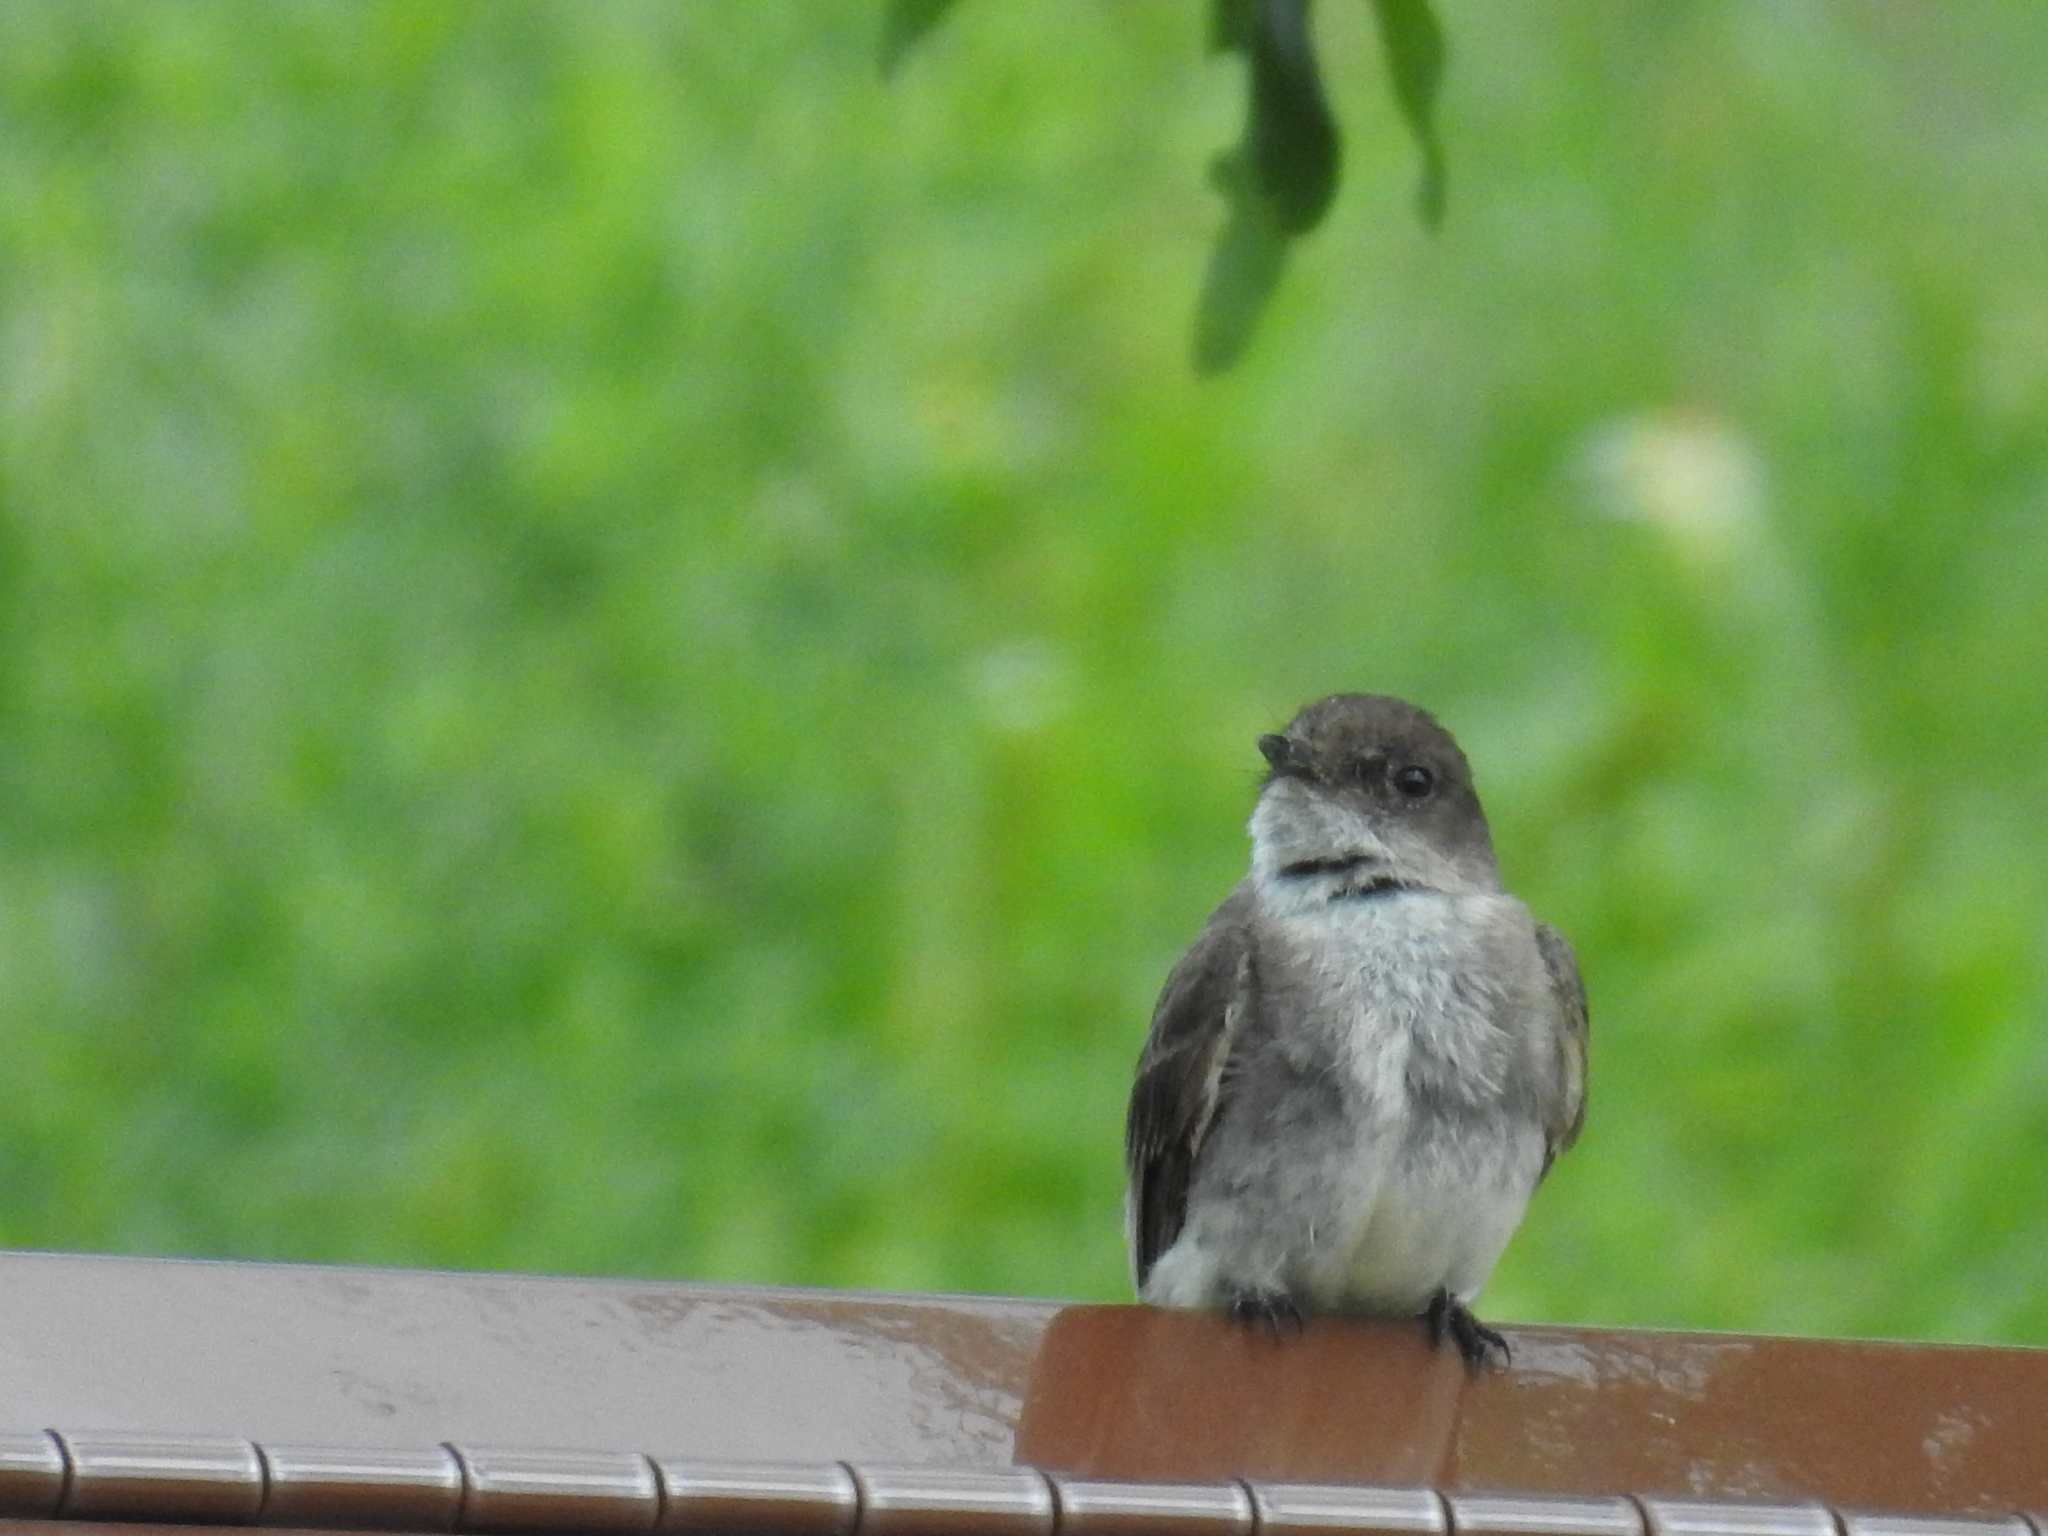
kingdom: Animalia
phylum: Chordata
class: Aves
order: Passeriformes
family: Tyrannidae
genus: Sayornis
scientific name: Sayornis phoebe
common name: Eastern phoebe
